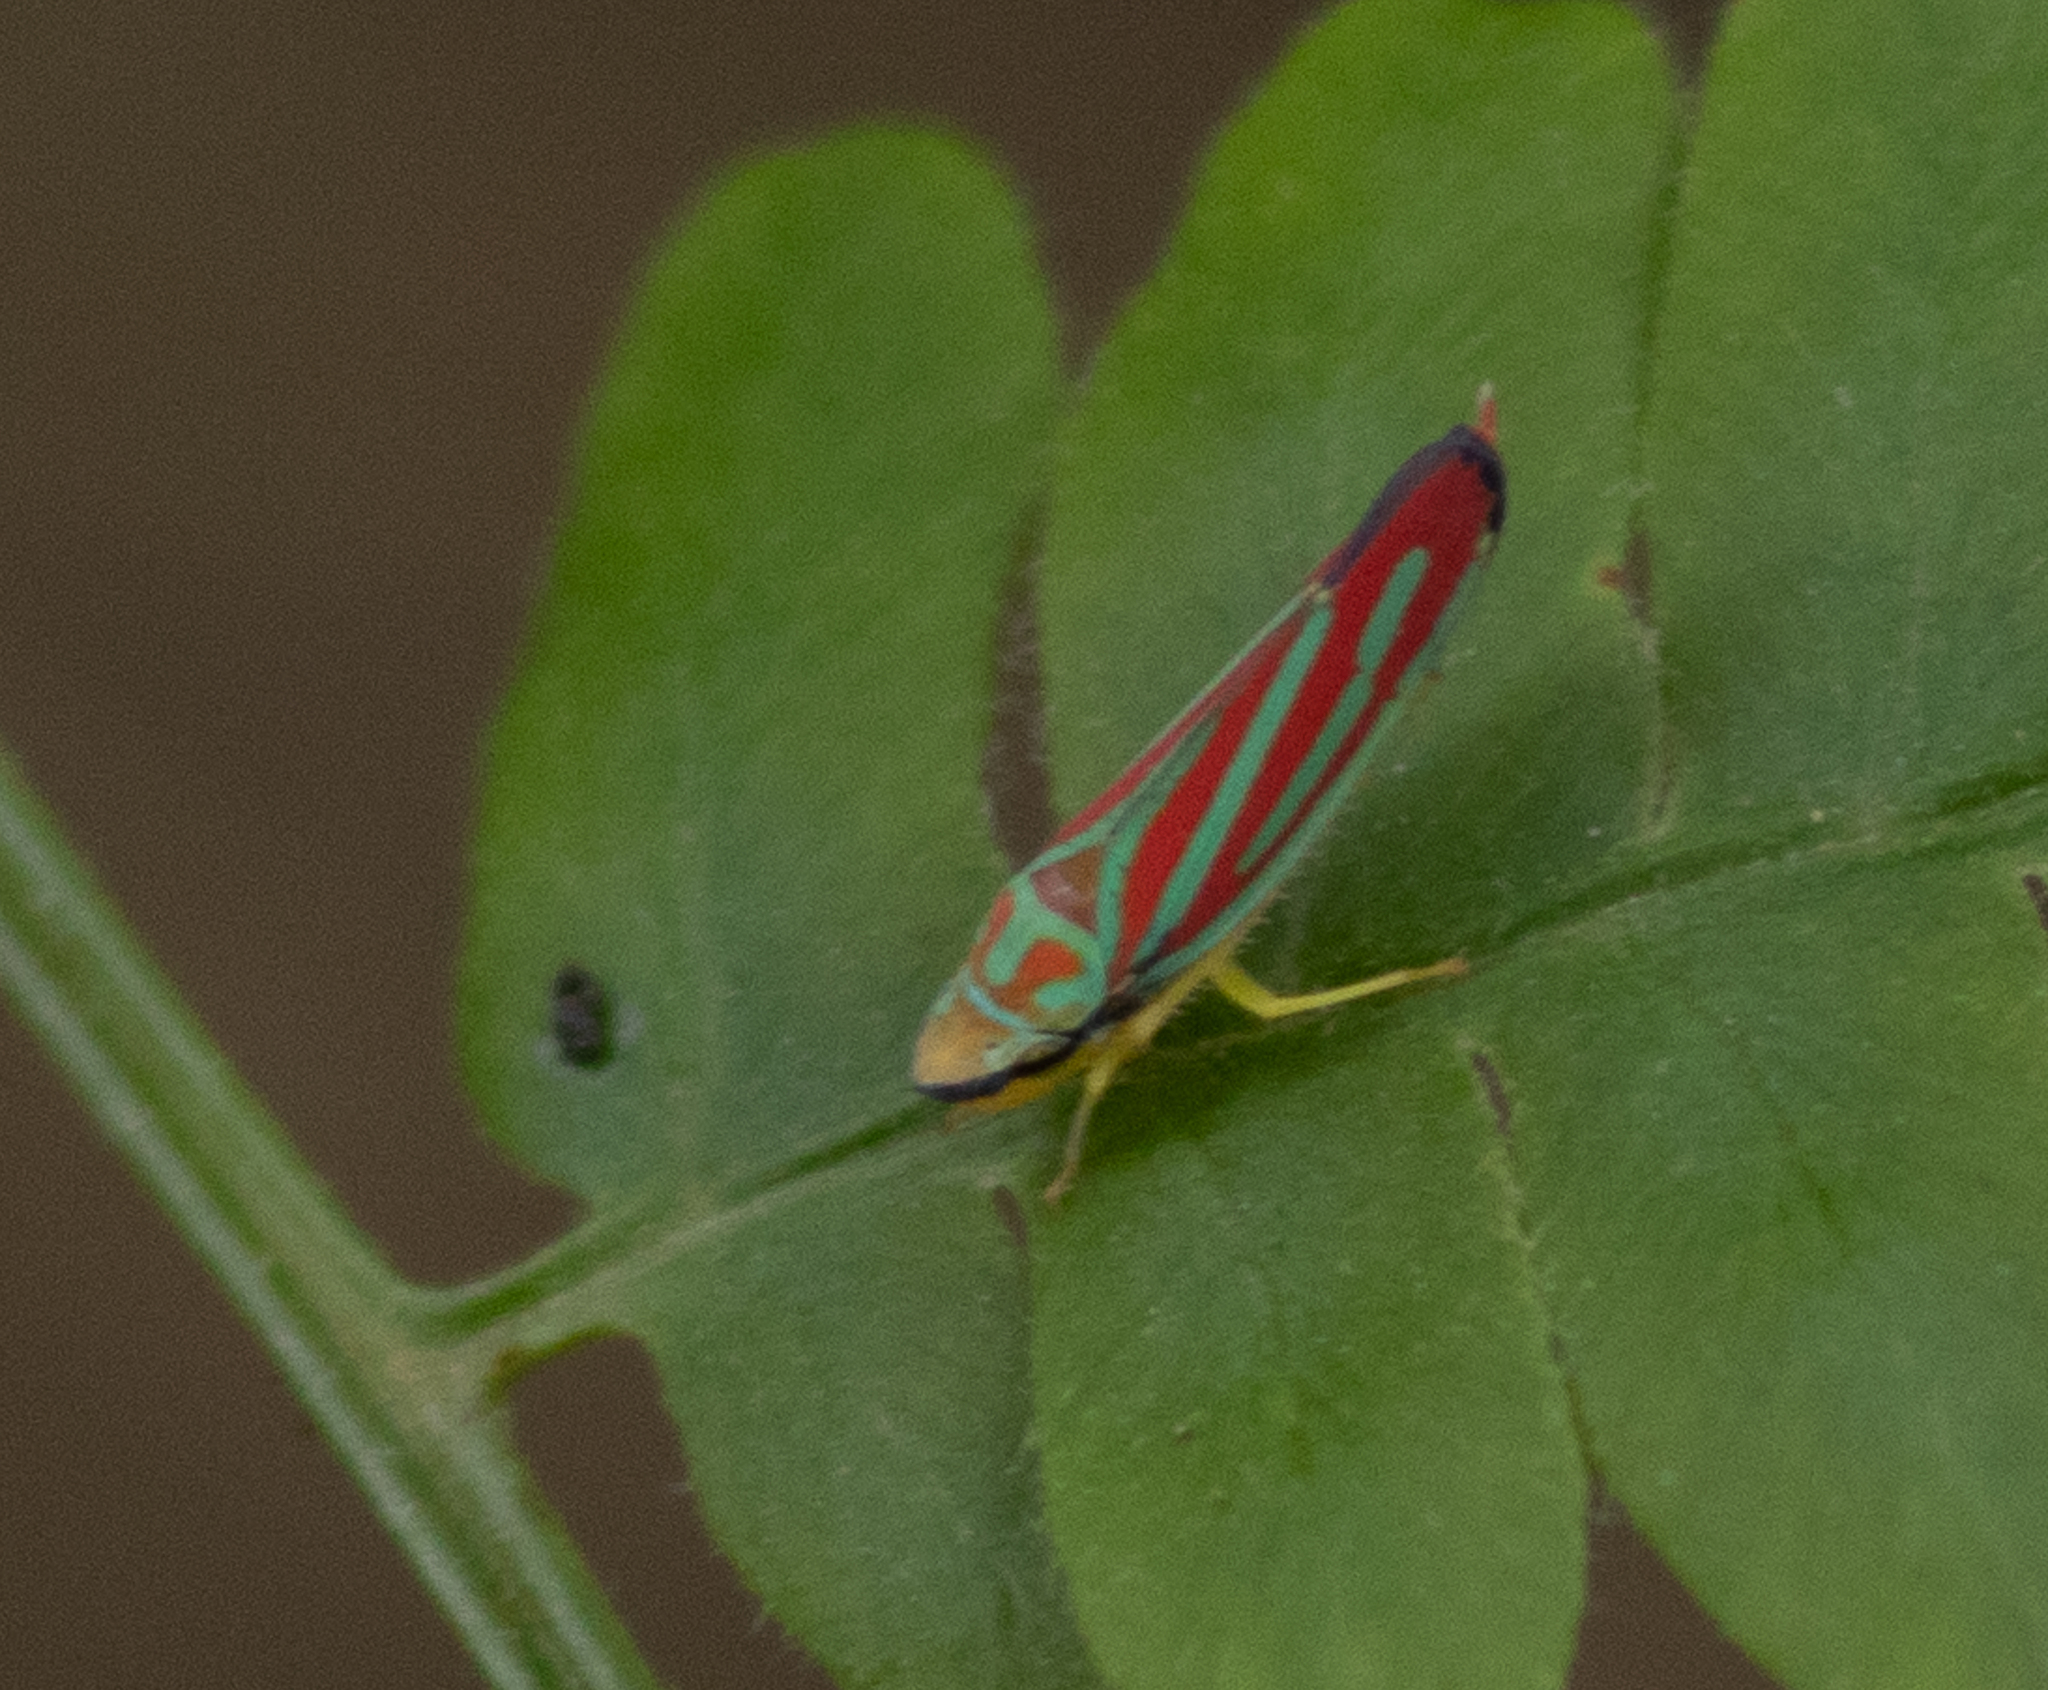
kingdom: Animalia
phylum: Arthropoda
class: Insecta
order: Hemiptera
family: Cicadellidae
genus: Graphocephala
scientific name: Graphocephala coccinea
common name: Candy-striped leafhopper
